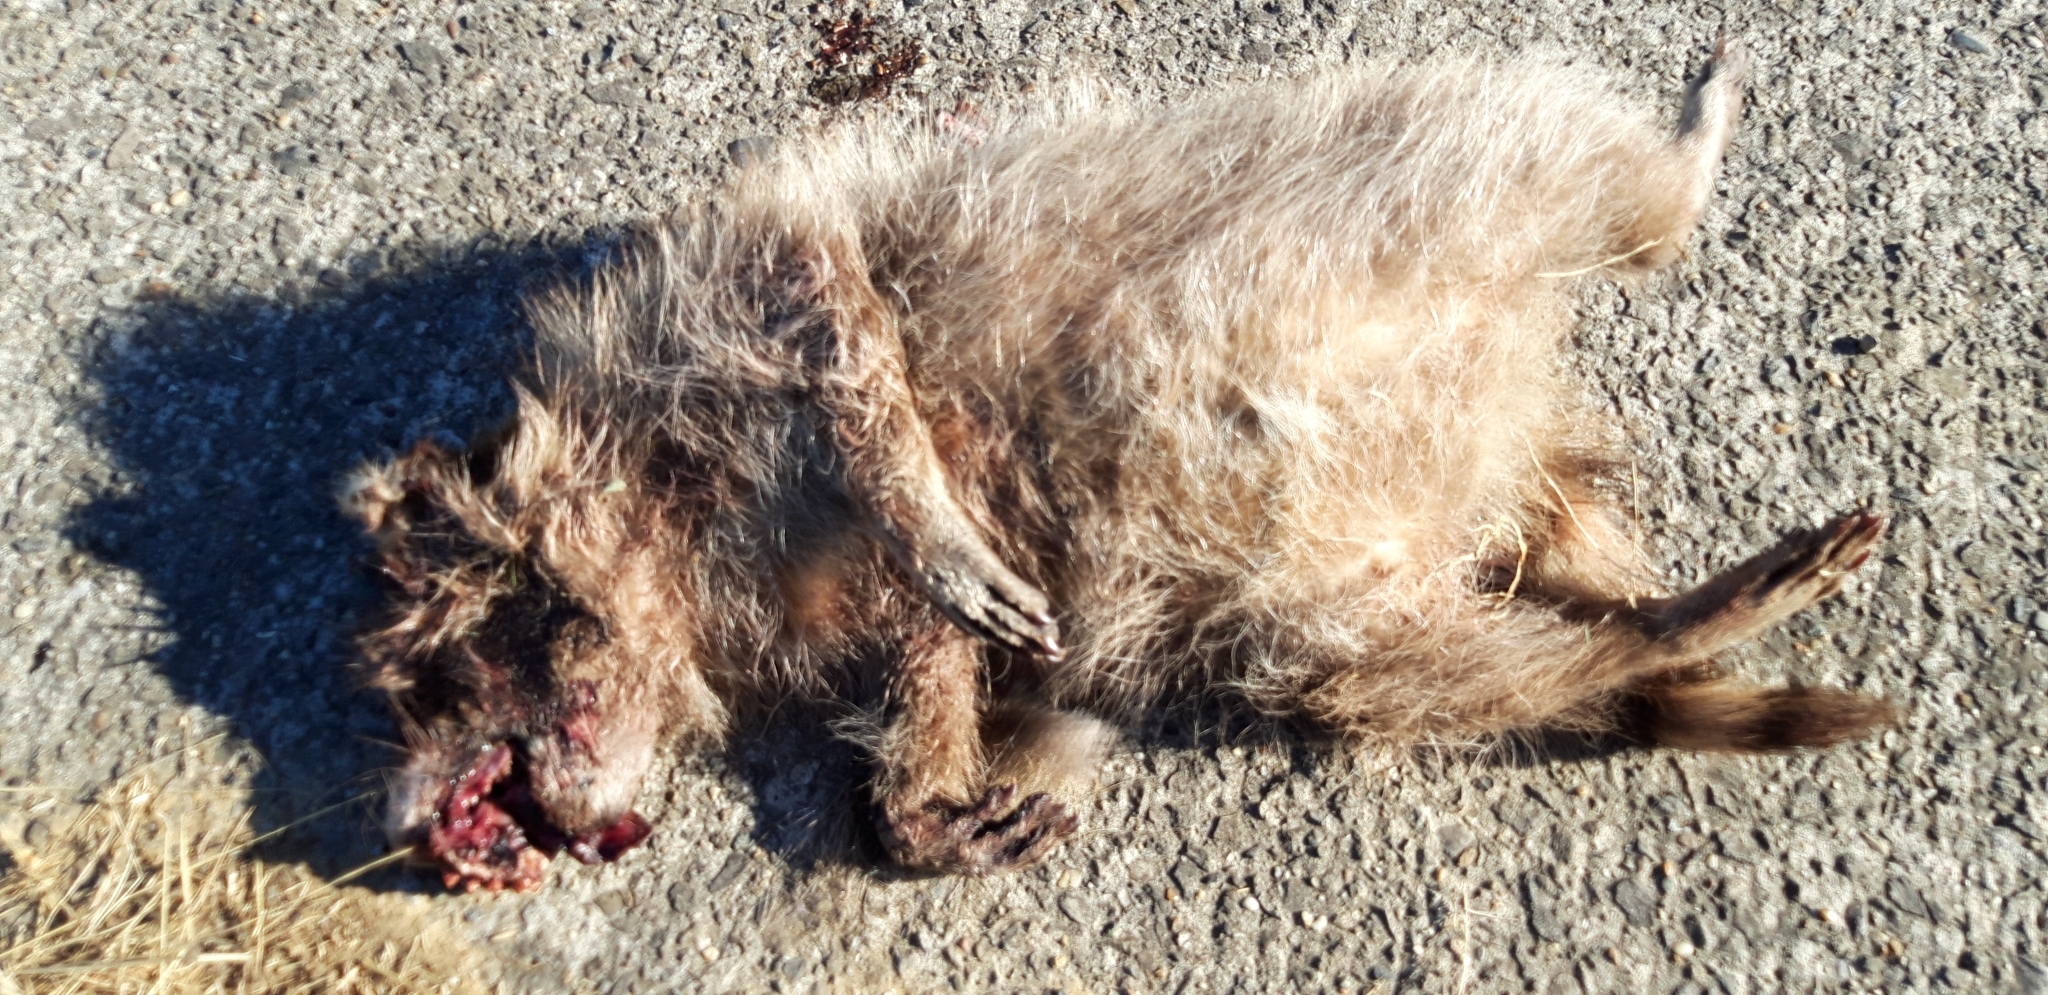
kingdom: Animalia
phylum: Chordata
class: Mammalia
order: Carnivora
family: Procyonidae
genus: Procyon
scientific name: Procyon lotor
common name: Raccoon
